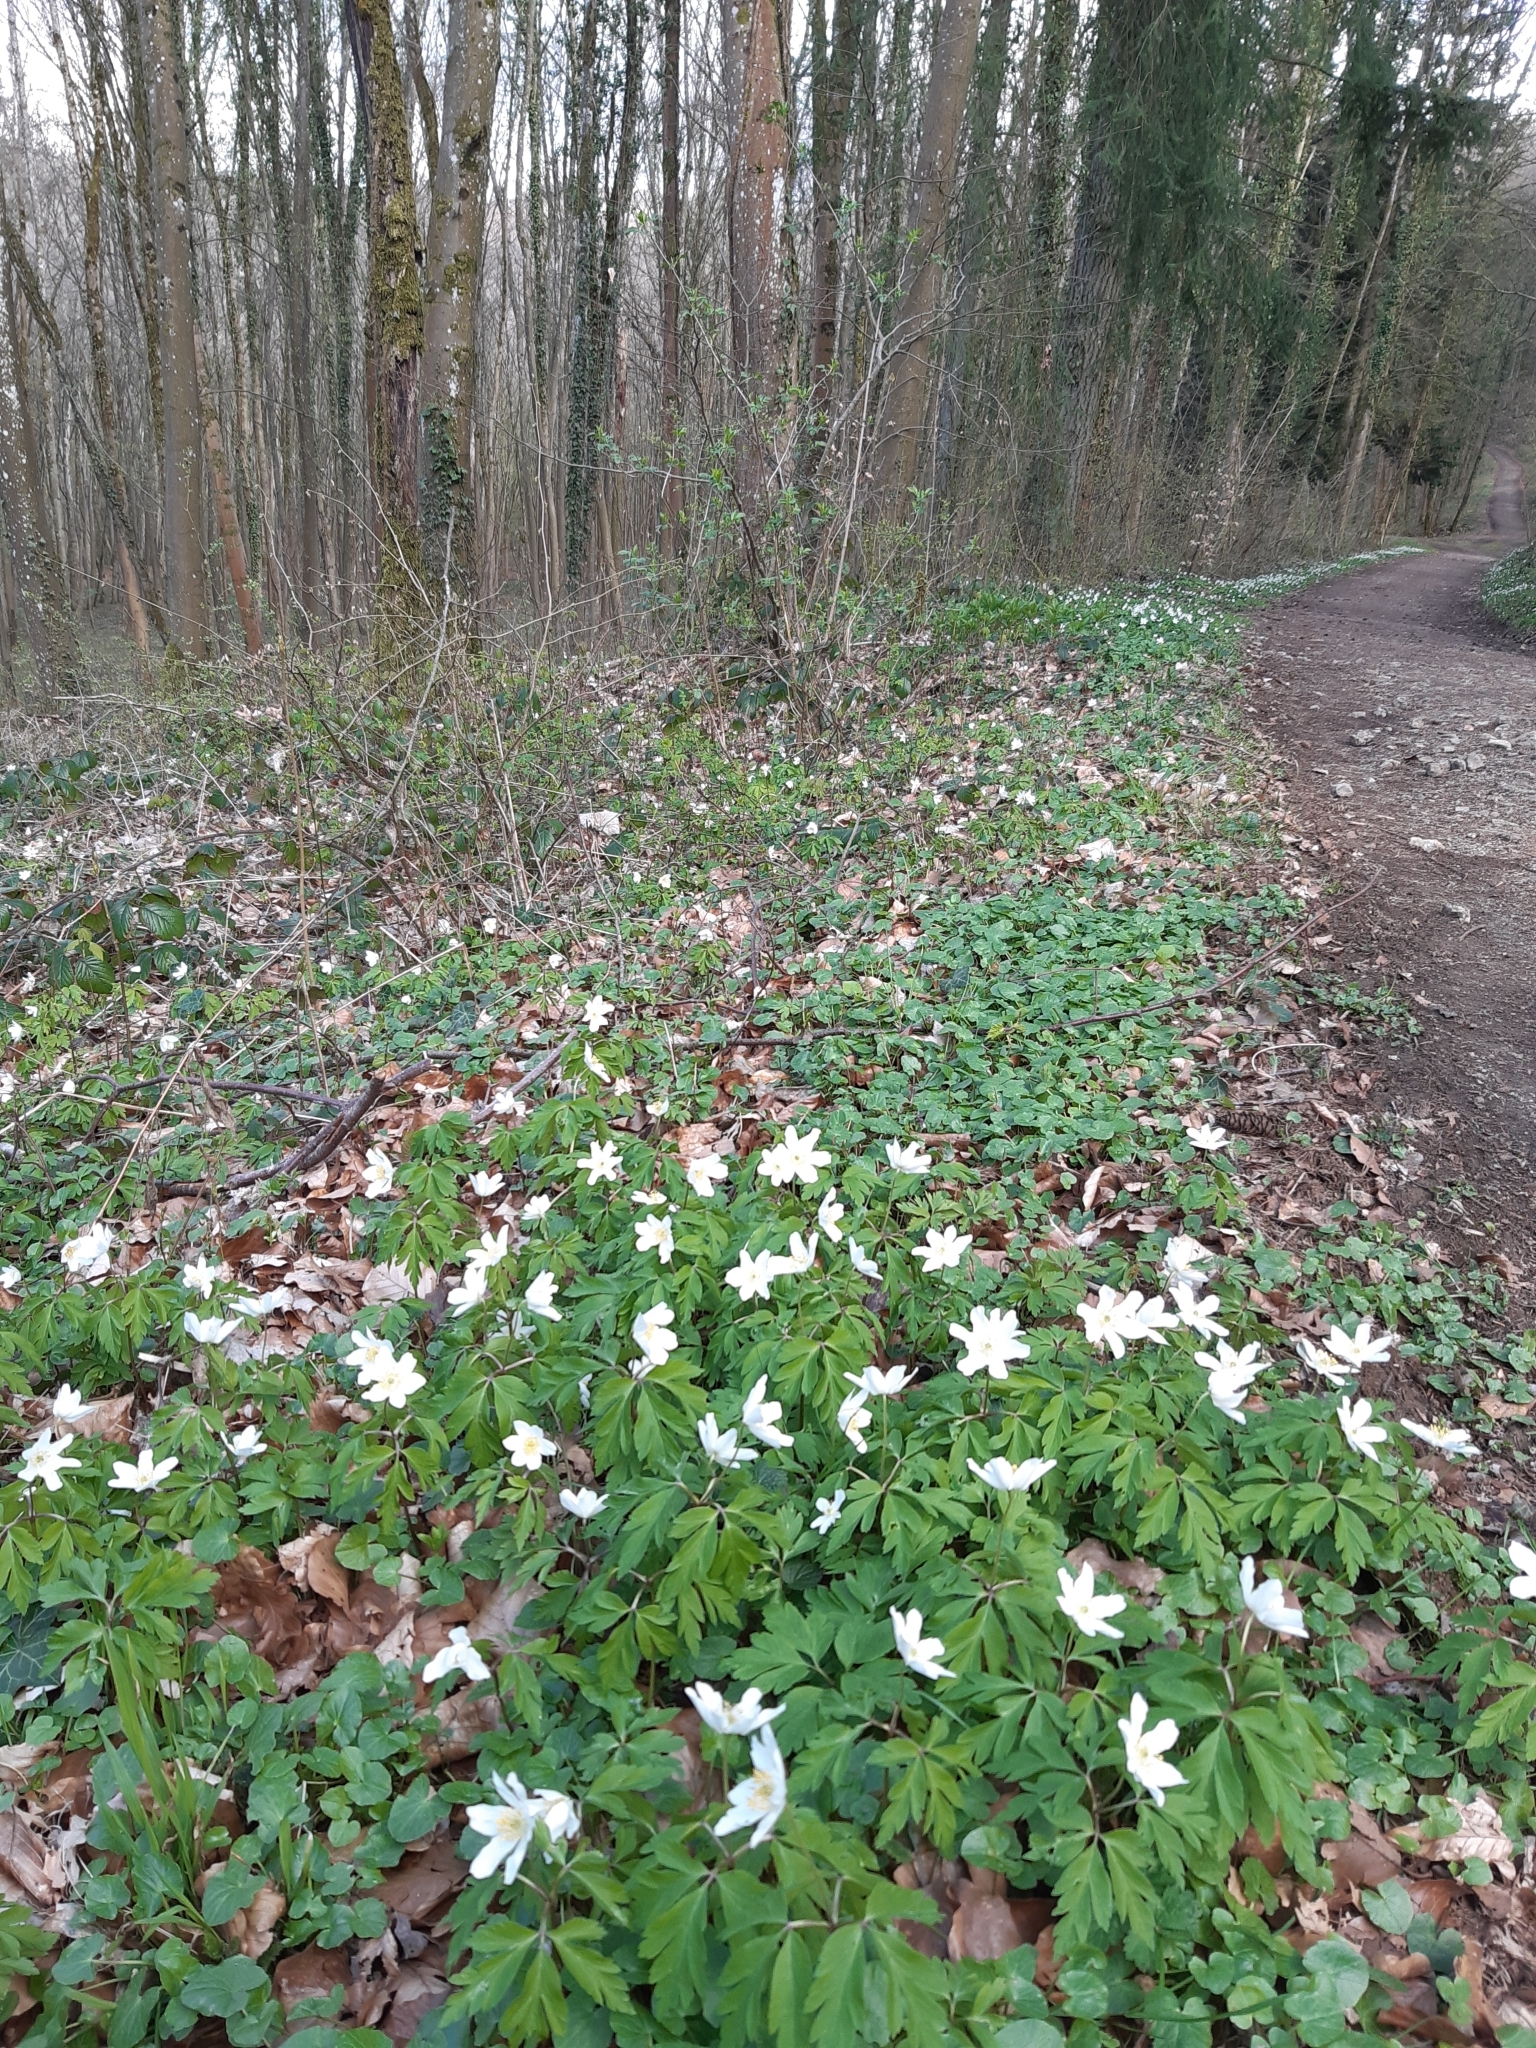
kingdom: Plantae
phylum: Tracheophyta
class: Magnoliopsida
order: Ranunculales
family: Ranunculaceae
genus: Anemone
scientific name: Anemone nemorosa
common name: Wood anemone
